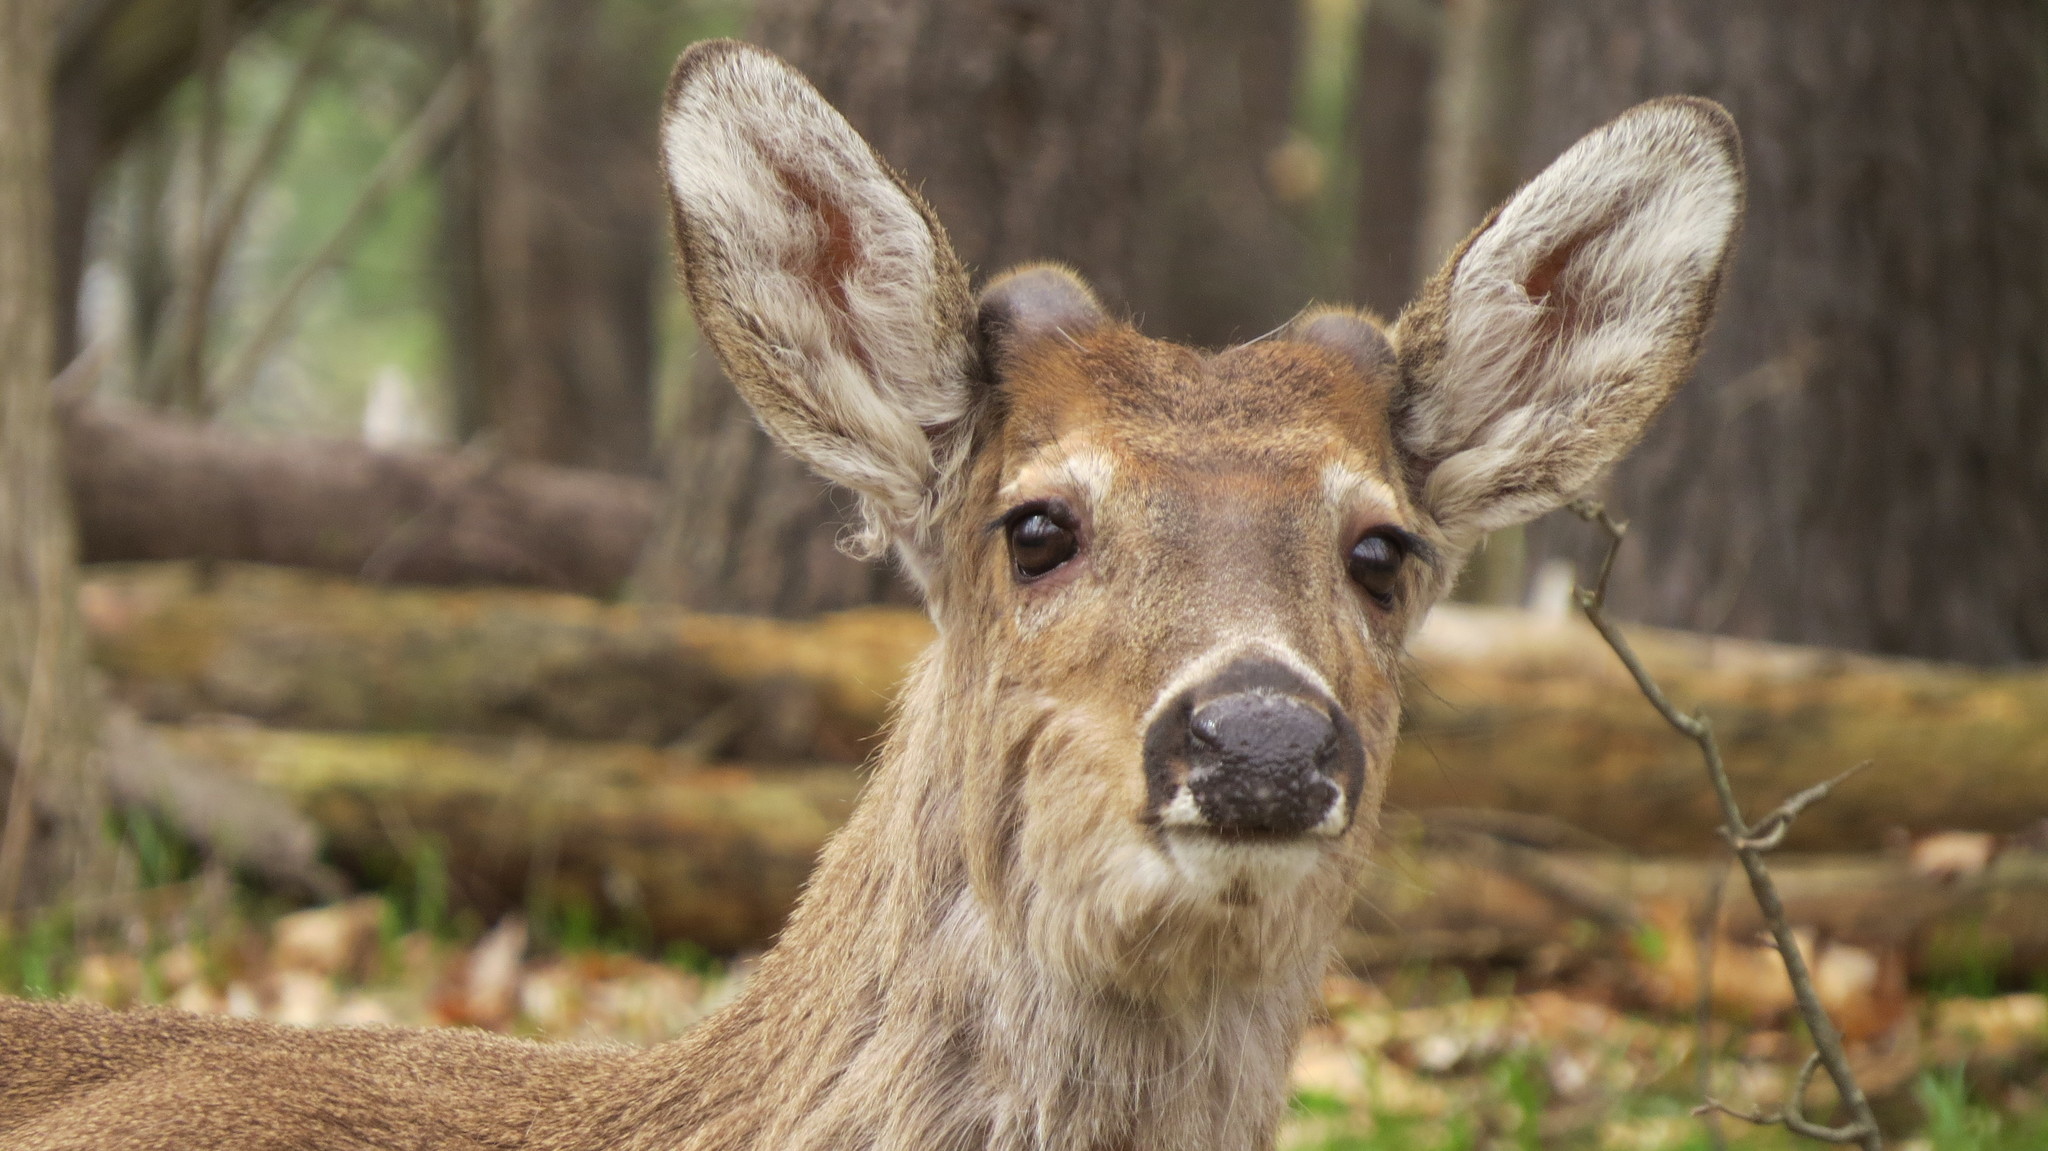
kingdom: Animalia
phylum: Chordata
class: Mammalia
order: Artiodactyla
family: Cervidae
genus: Odocoileus
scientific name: Odocoileus virginianus
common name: White-tailed deer
